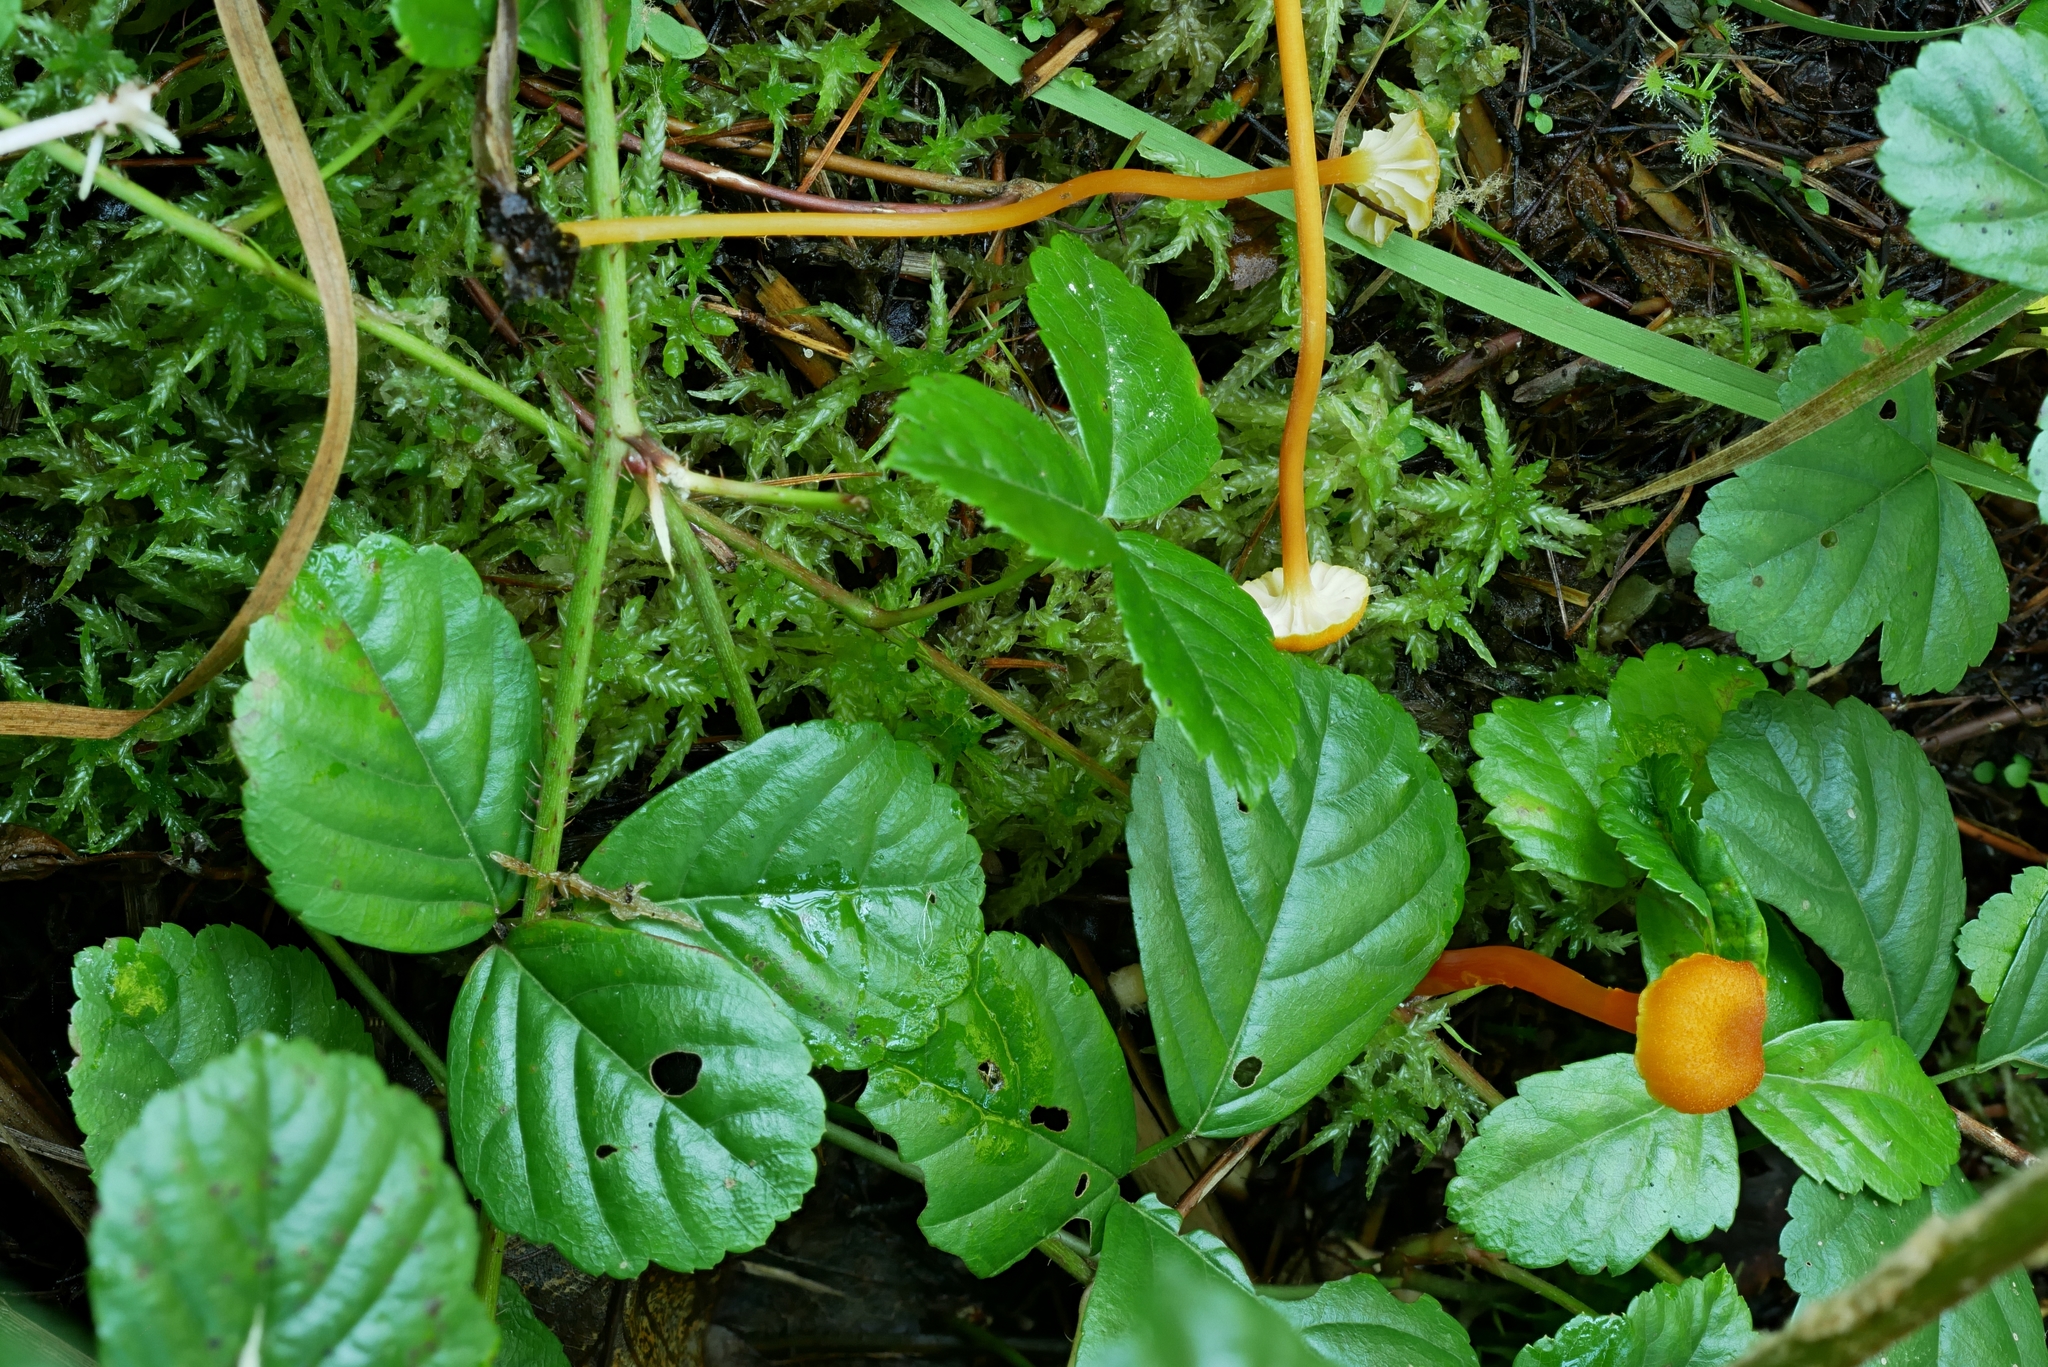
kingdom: Fungi
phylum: Basidiomycota
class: Agaricomycetes
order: Agaricales
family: Hygrophoraceae
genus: Hygrocybe
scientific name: Hygrocybe turunda
